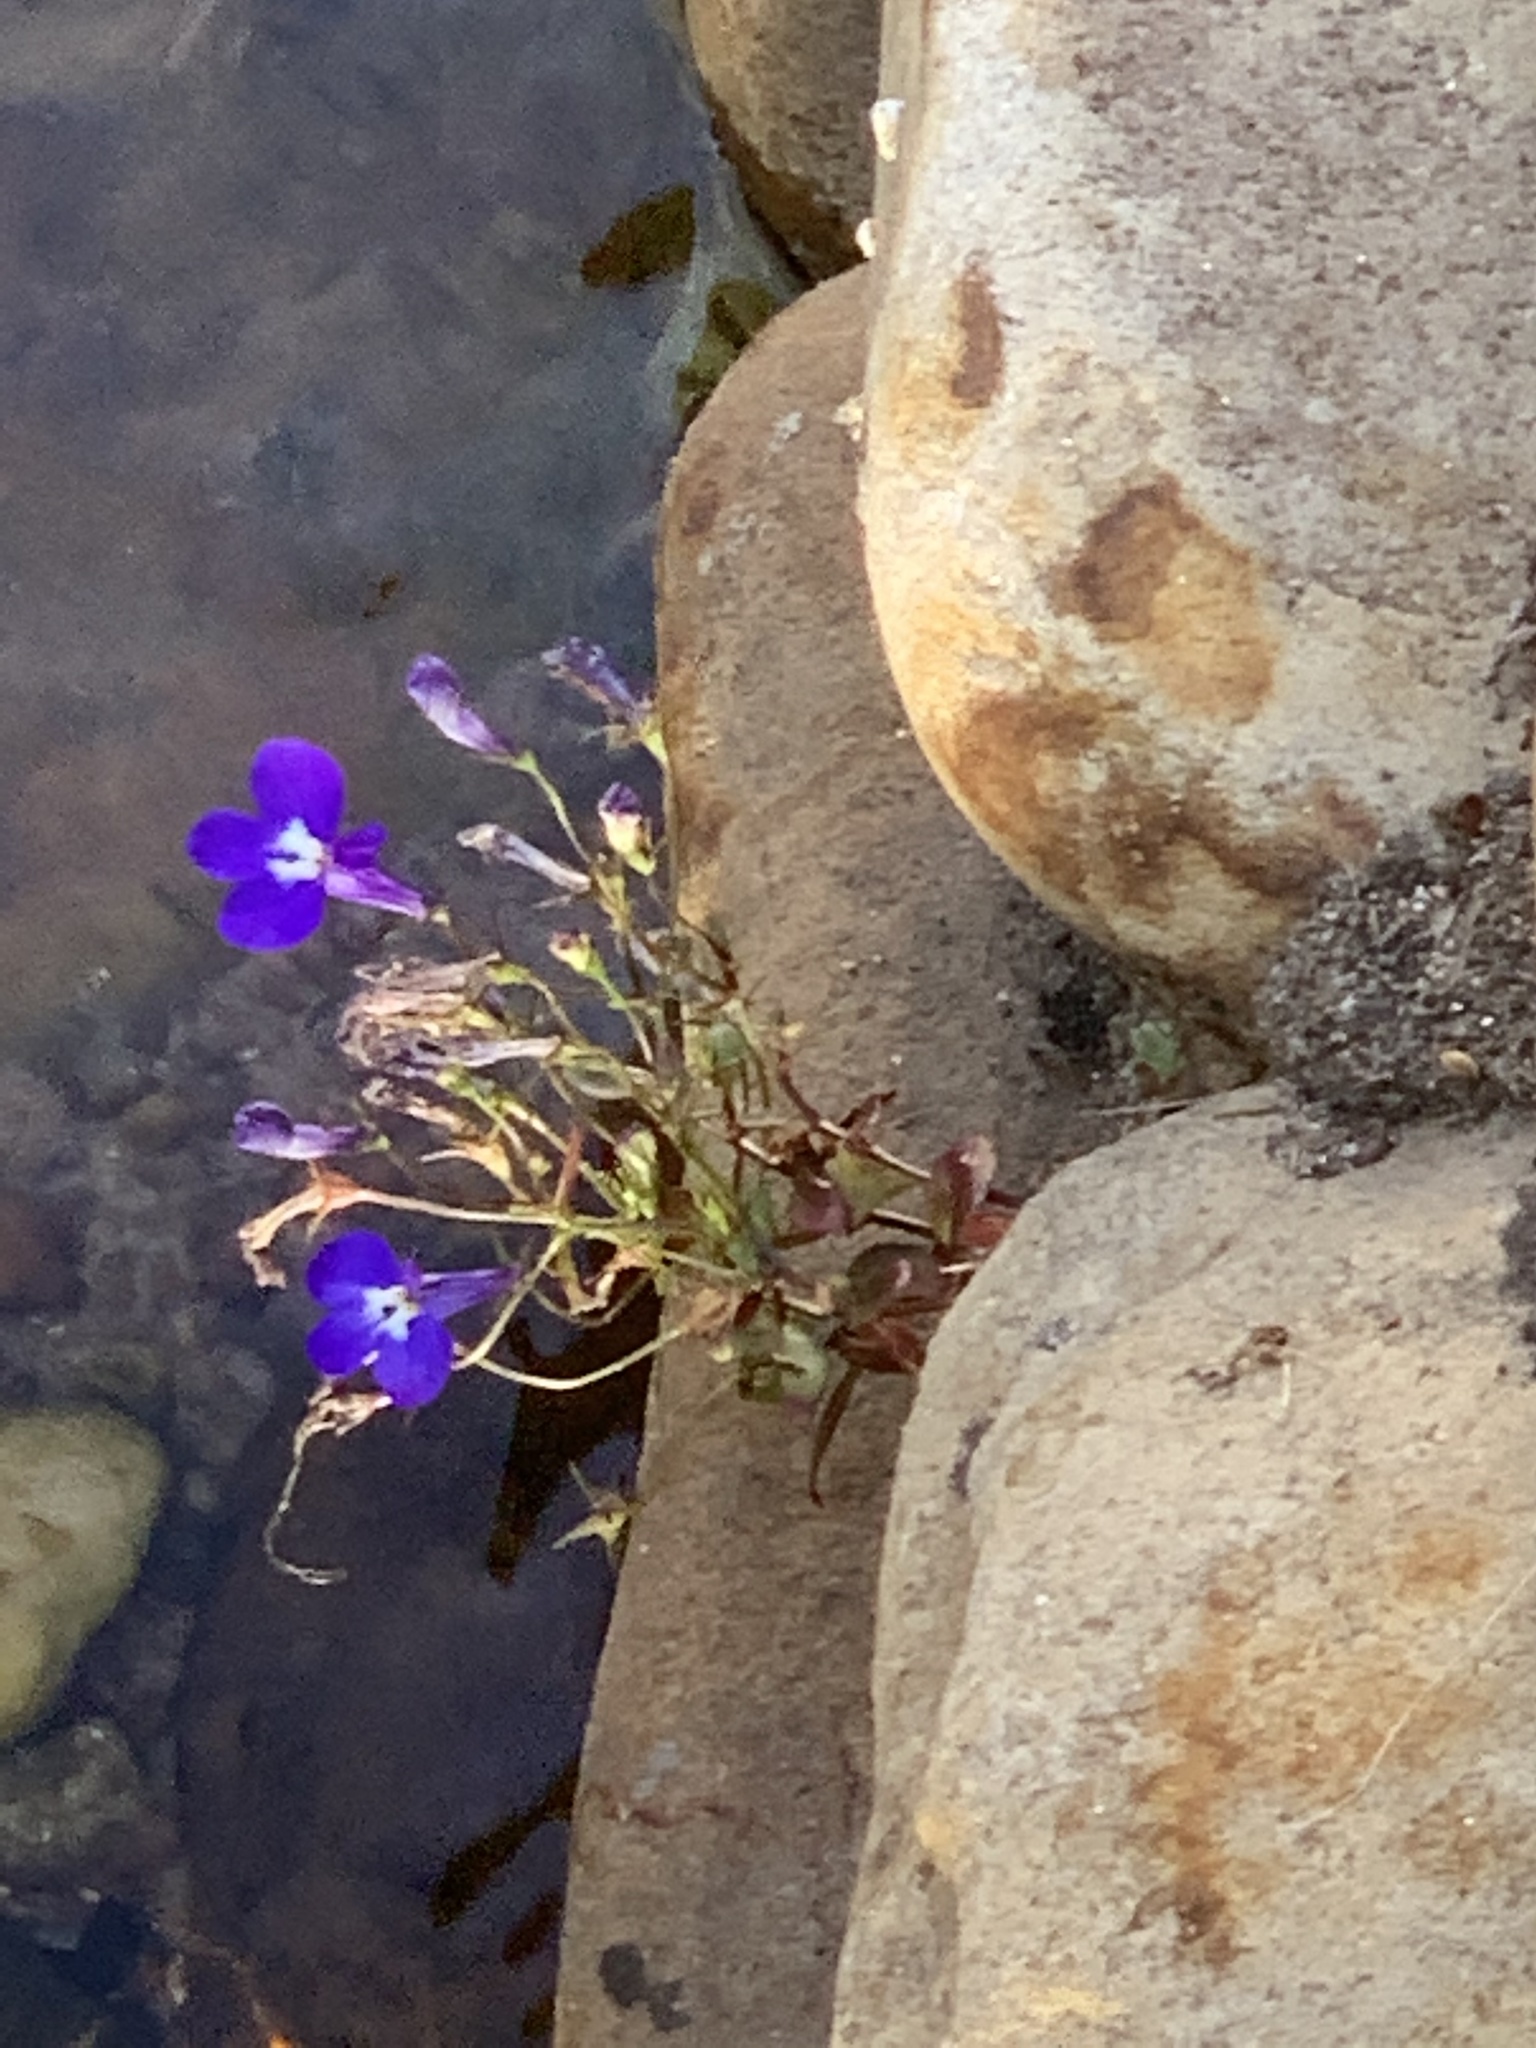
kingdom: Plantae
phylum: Tracheophyta
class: Magnoliopsida
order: Asterales
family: Campanulaceae
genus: Lobelia
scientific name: Lobelia erinus
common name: Edging lobelia
